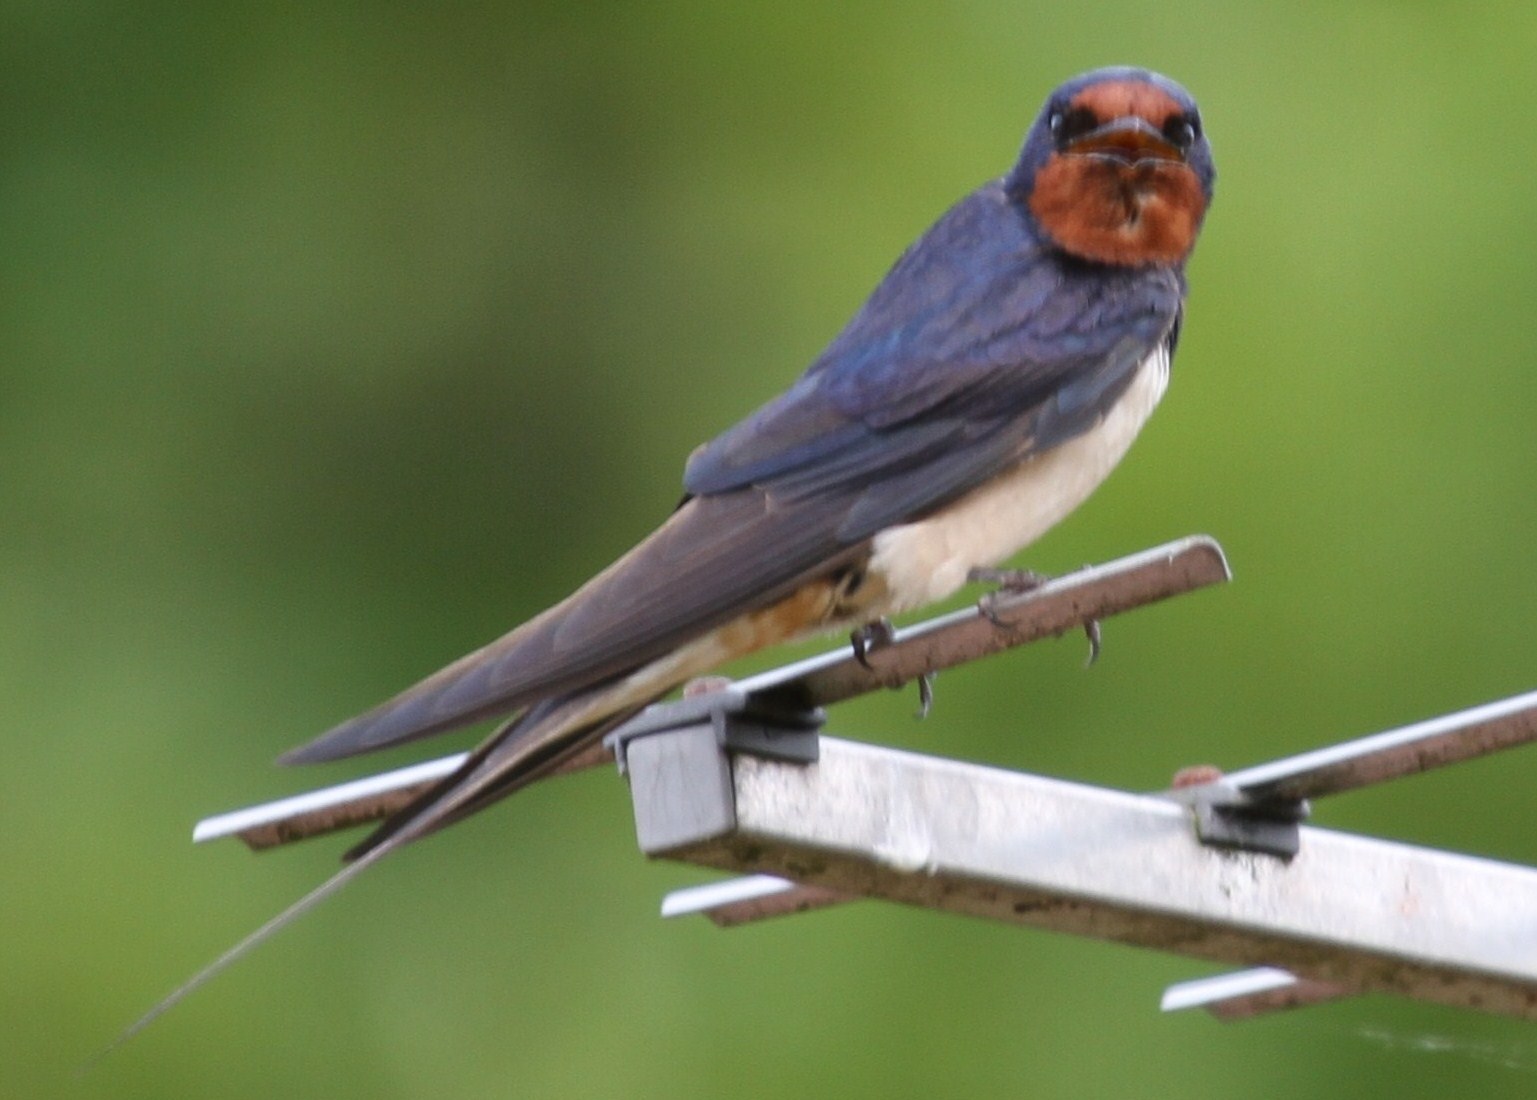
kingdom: Animalia
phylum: Chordata
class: Aves
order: Passeriformes
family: Hirundinidae
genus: Hirundo
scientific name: Hirundo rustica
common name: Barn swallow
